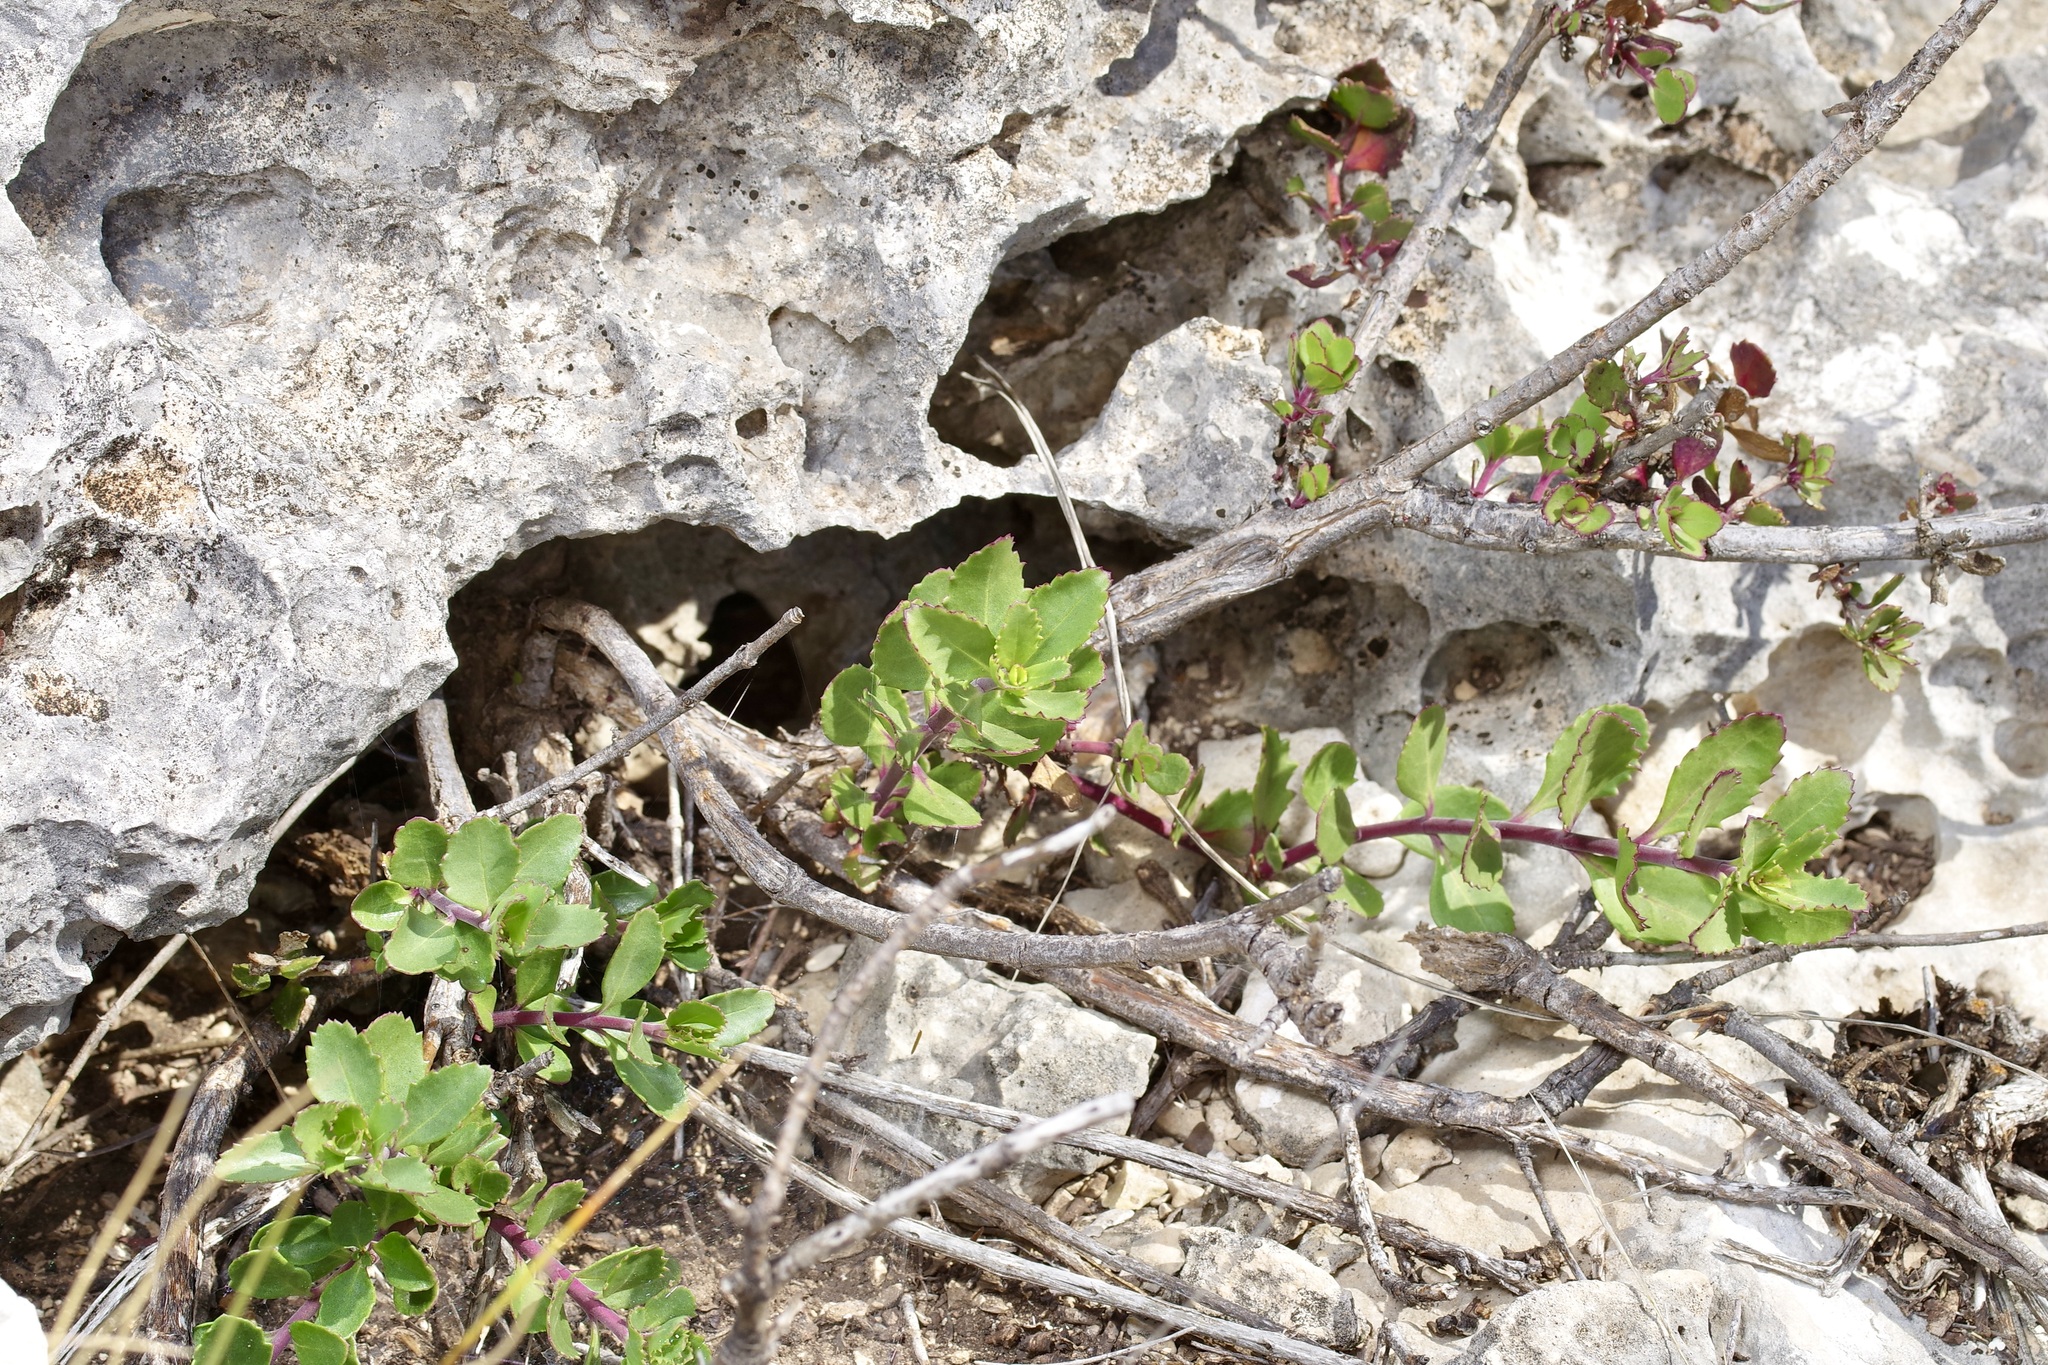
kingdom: Plantae
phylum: Tracheophyta
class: Magnoliopsida
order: Lamiales
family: Plantaginaceae
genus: Penstemon
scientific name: Penstemon baccharifolius
